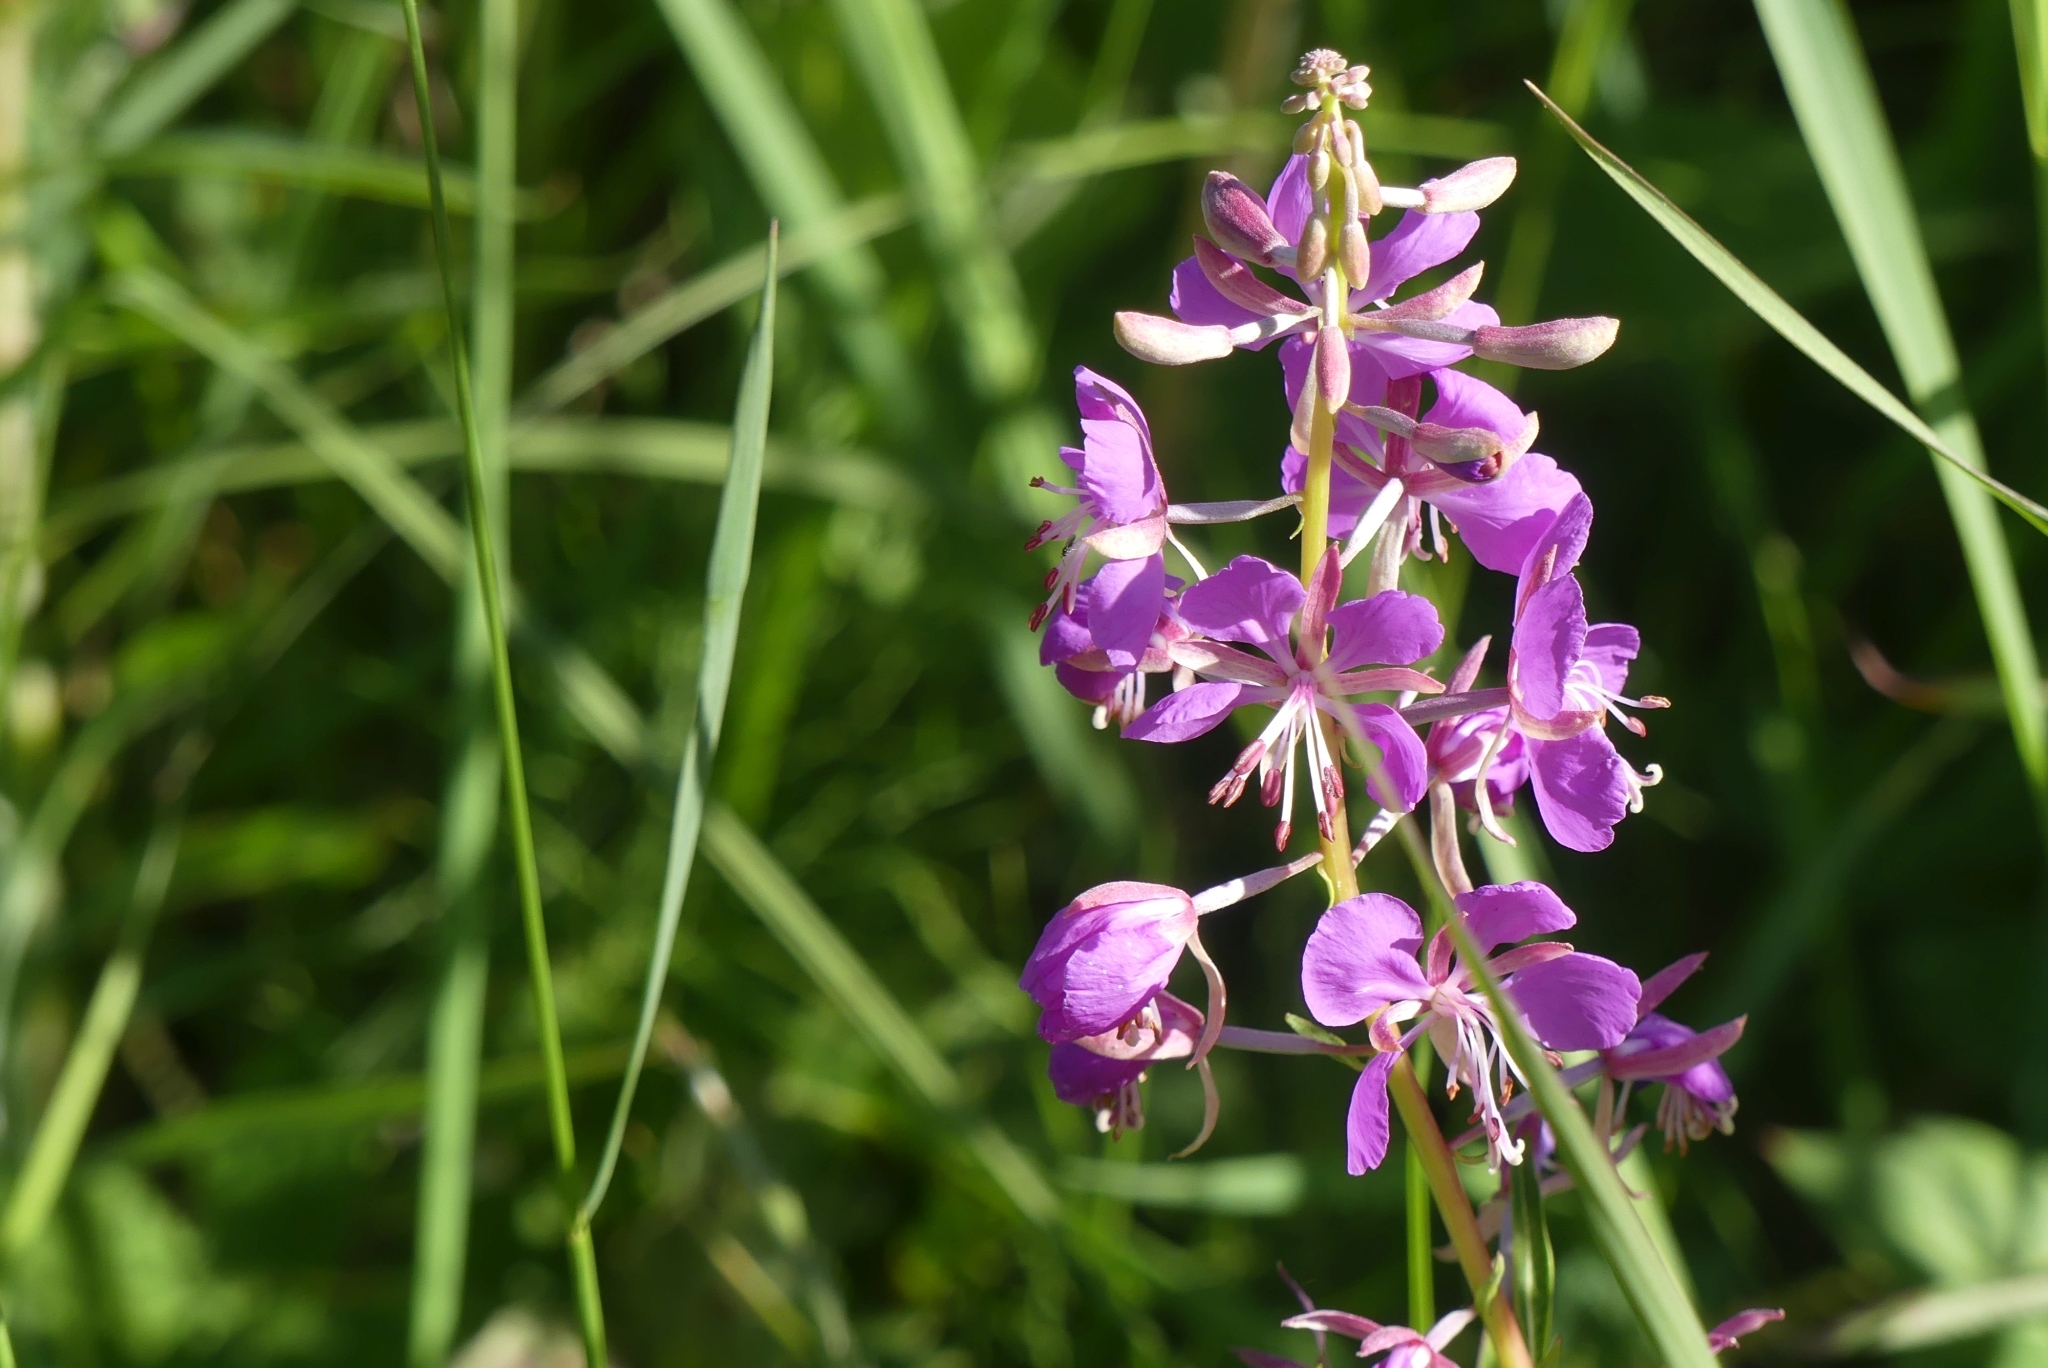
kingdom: Plantae
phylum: Tracheophyta
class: Magnoliopsida
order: Myrtales
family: Onagraceae
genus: Chamaenerion
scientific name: Chamaenerion angustifolium
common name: Fireweed
